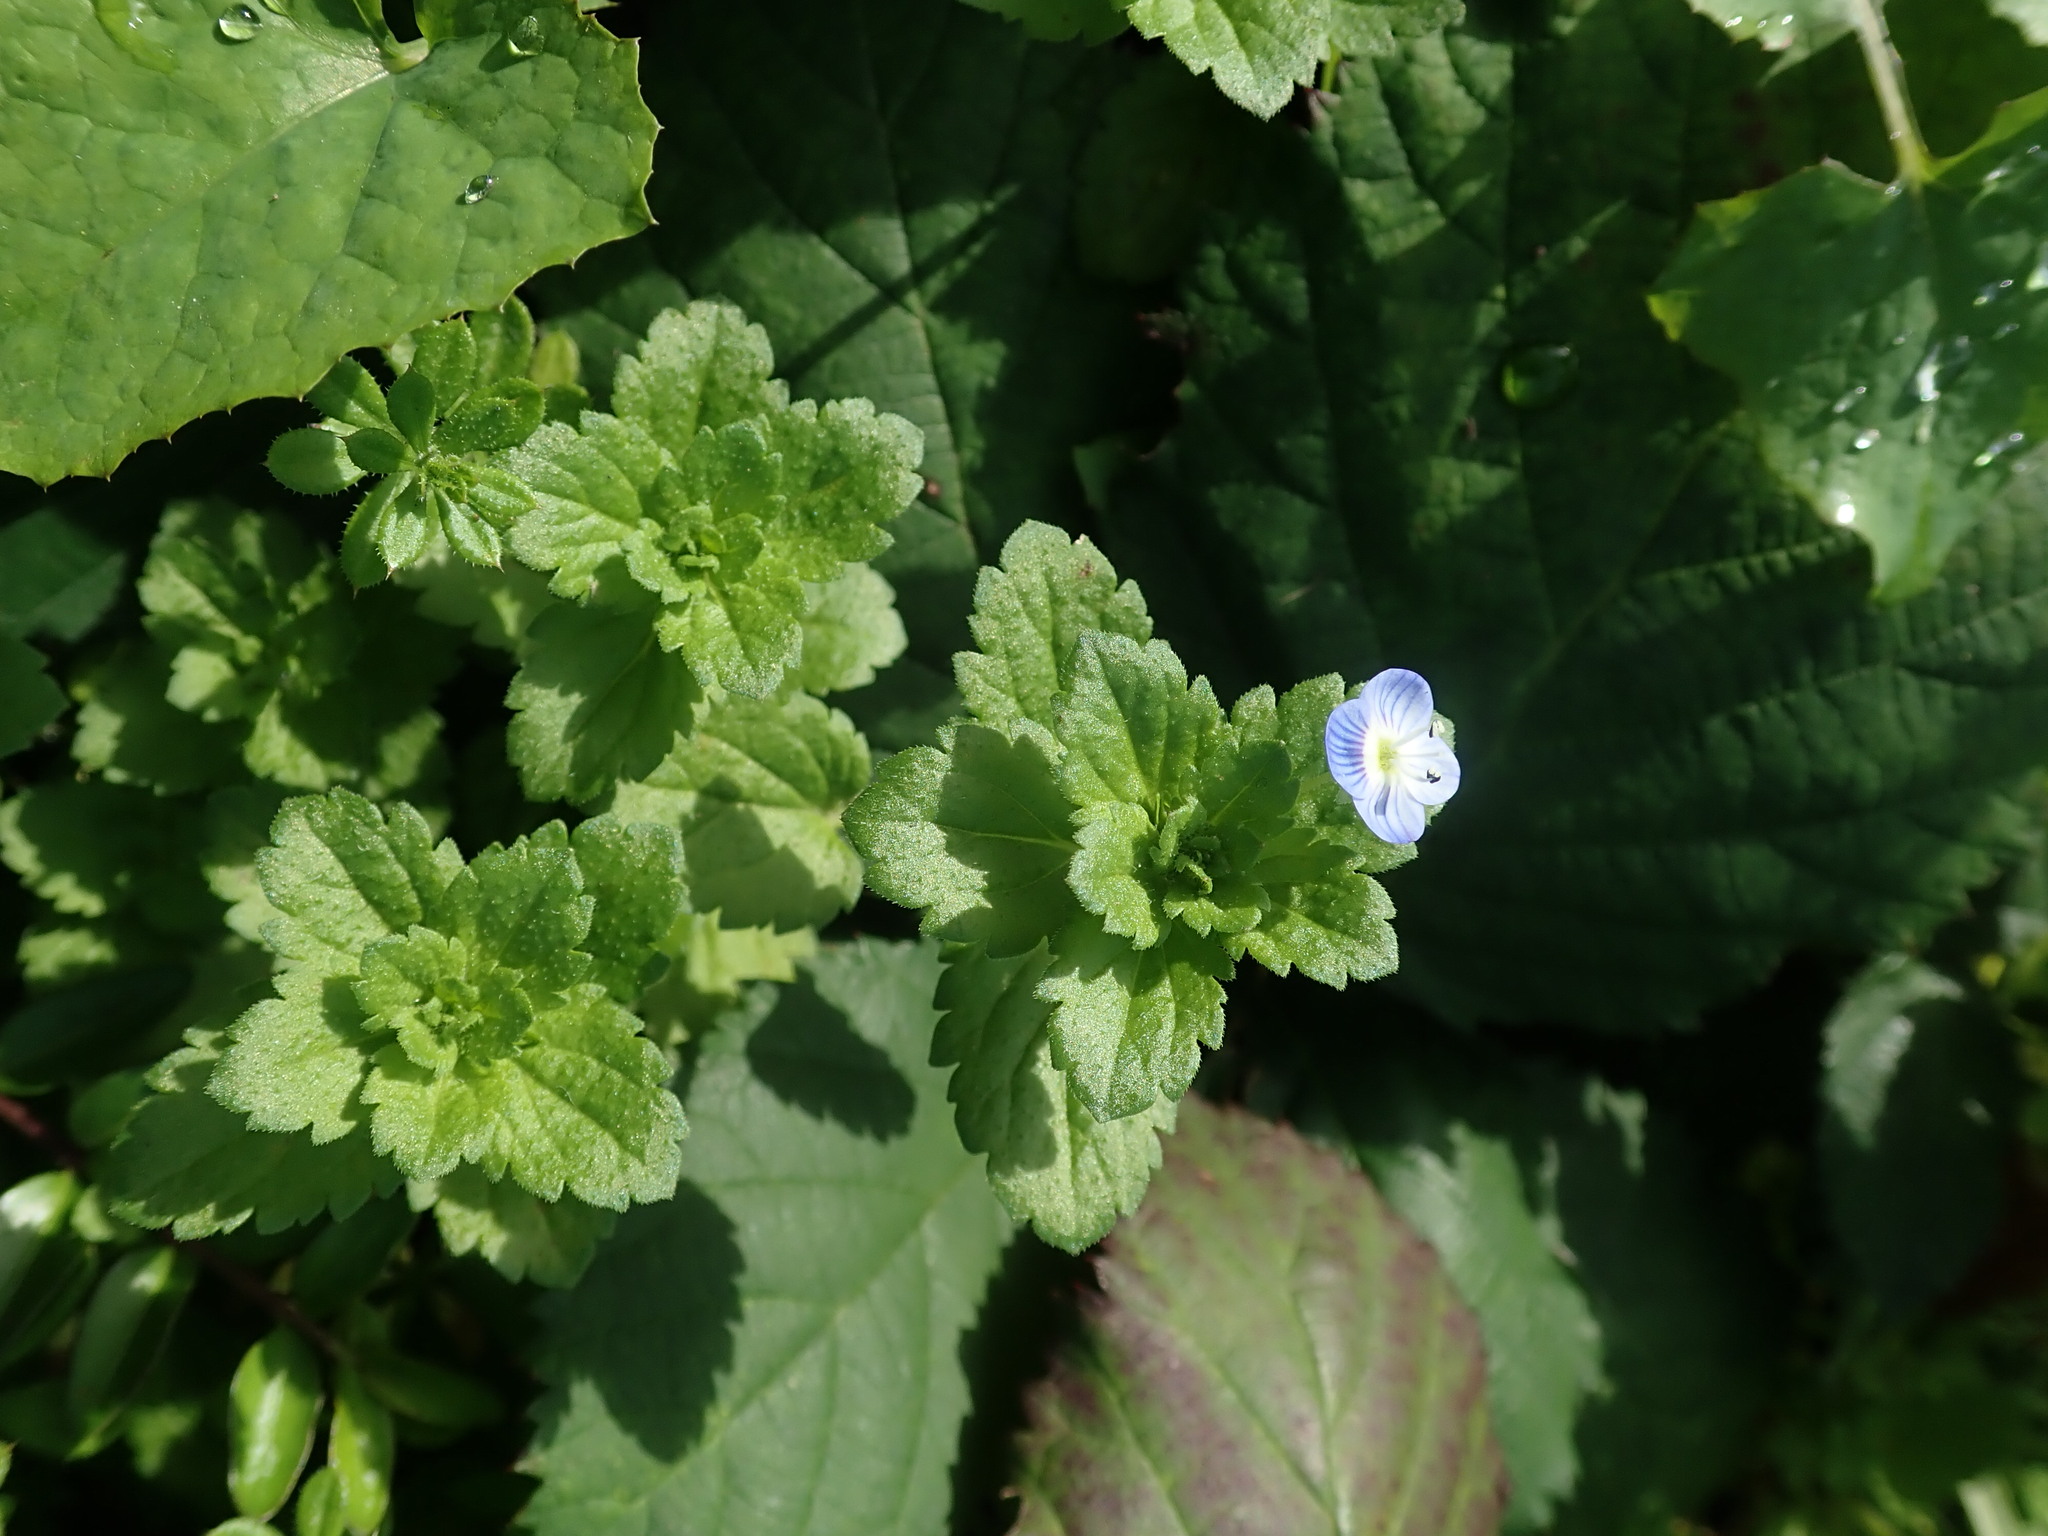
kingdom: Plantae
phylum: Tracheophyta
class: Magnoliopsida
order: Lamiales
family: Plantaginaceae
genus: Veronica
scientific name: Veronica persica
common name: Common field-speedwell
